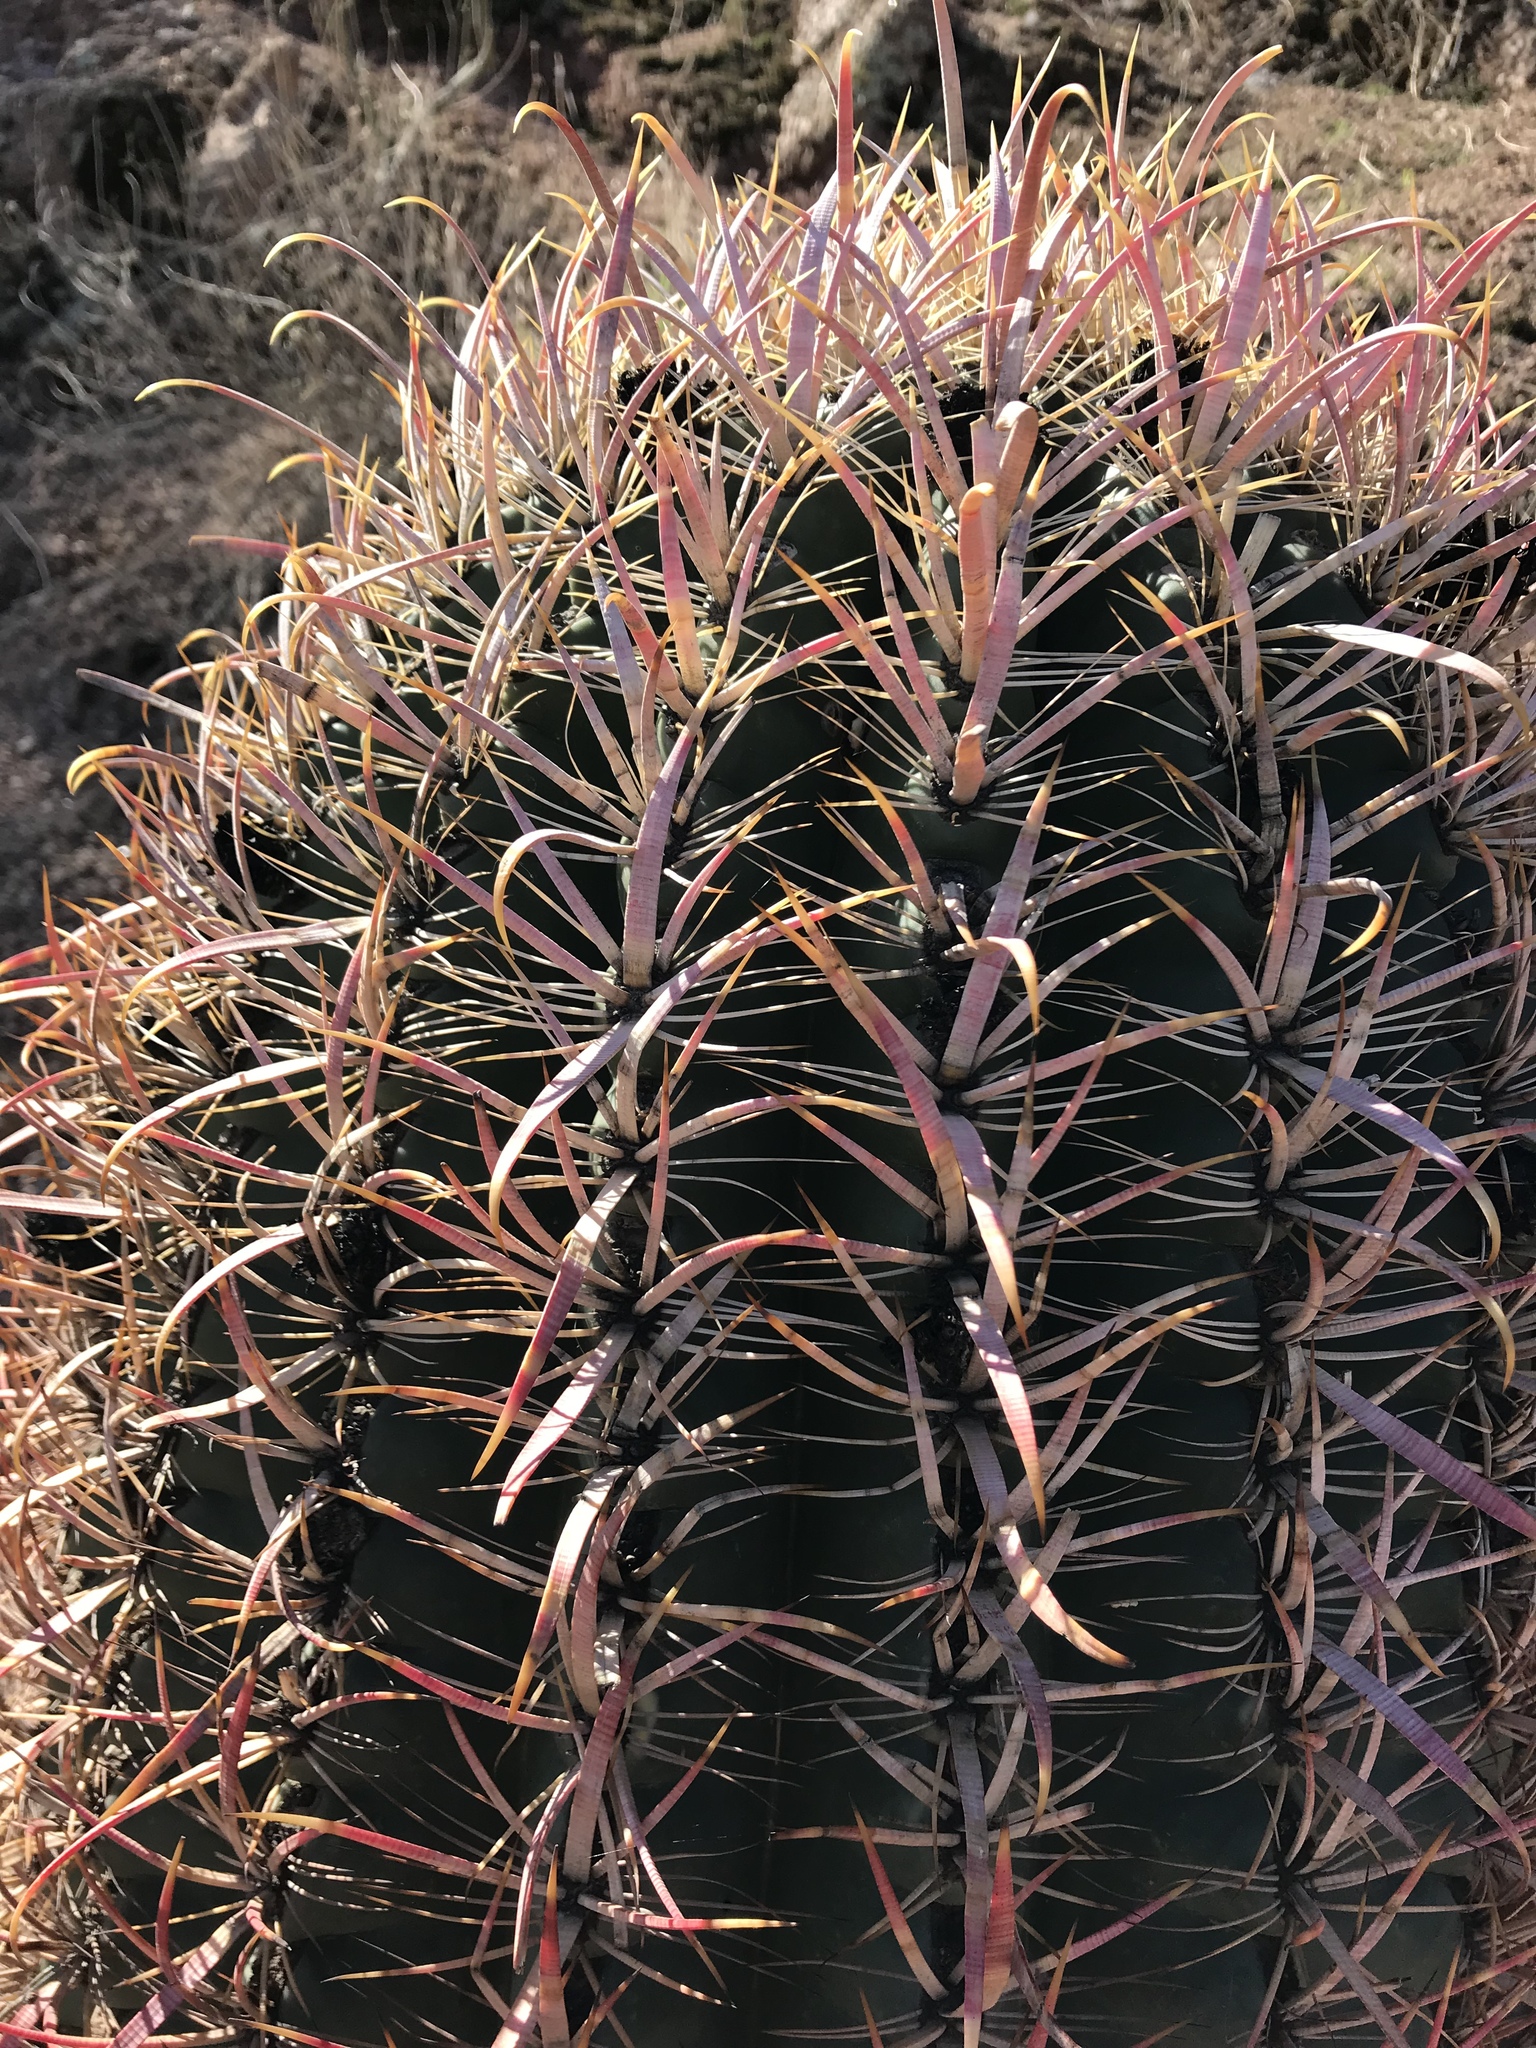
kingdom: Plantae
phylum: Tracheophyta
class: Magnoliopsida
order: Caryophyllales
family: Cactaceae
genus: Ferocactus
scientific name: Ferocactus cylindraceus
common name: California barrel cactus
